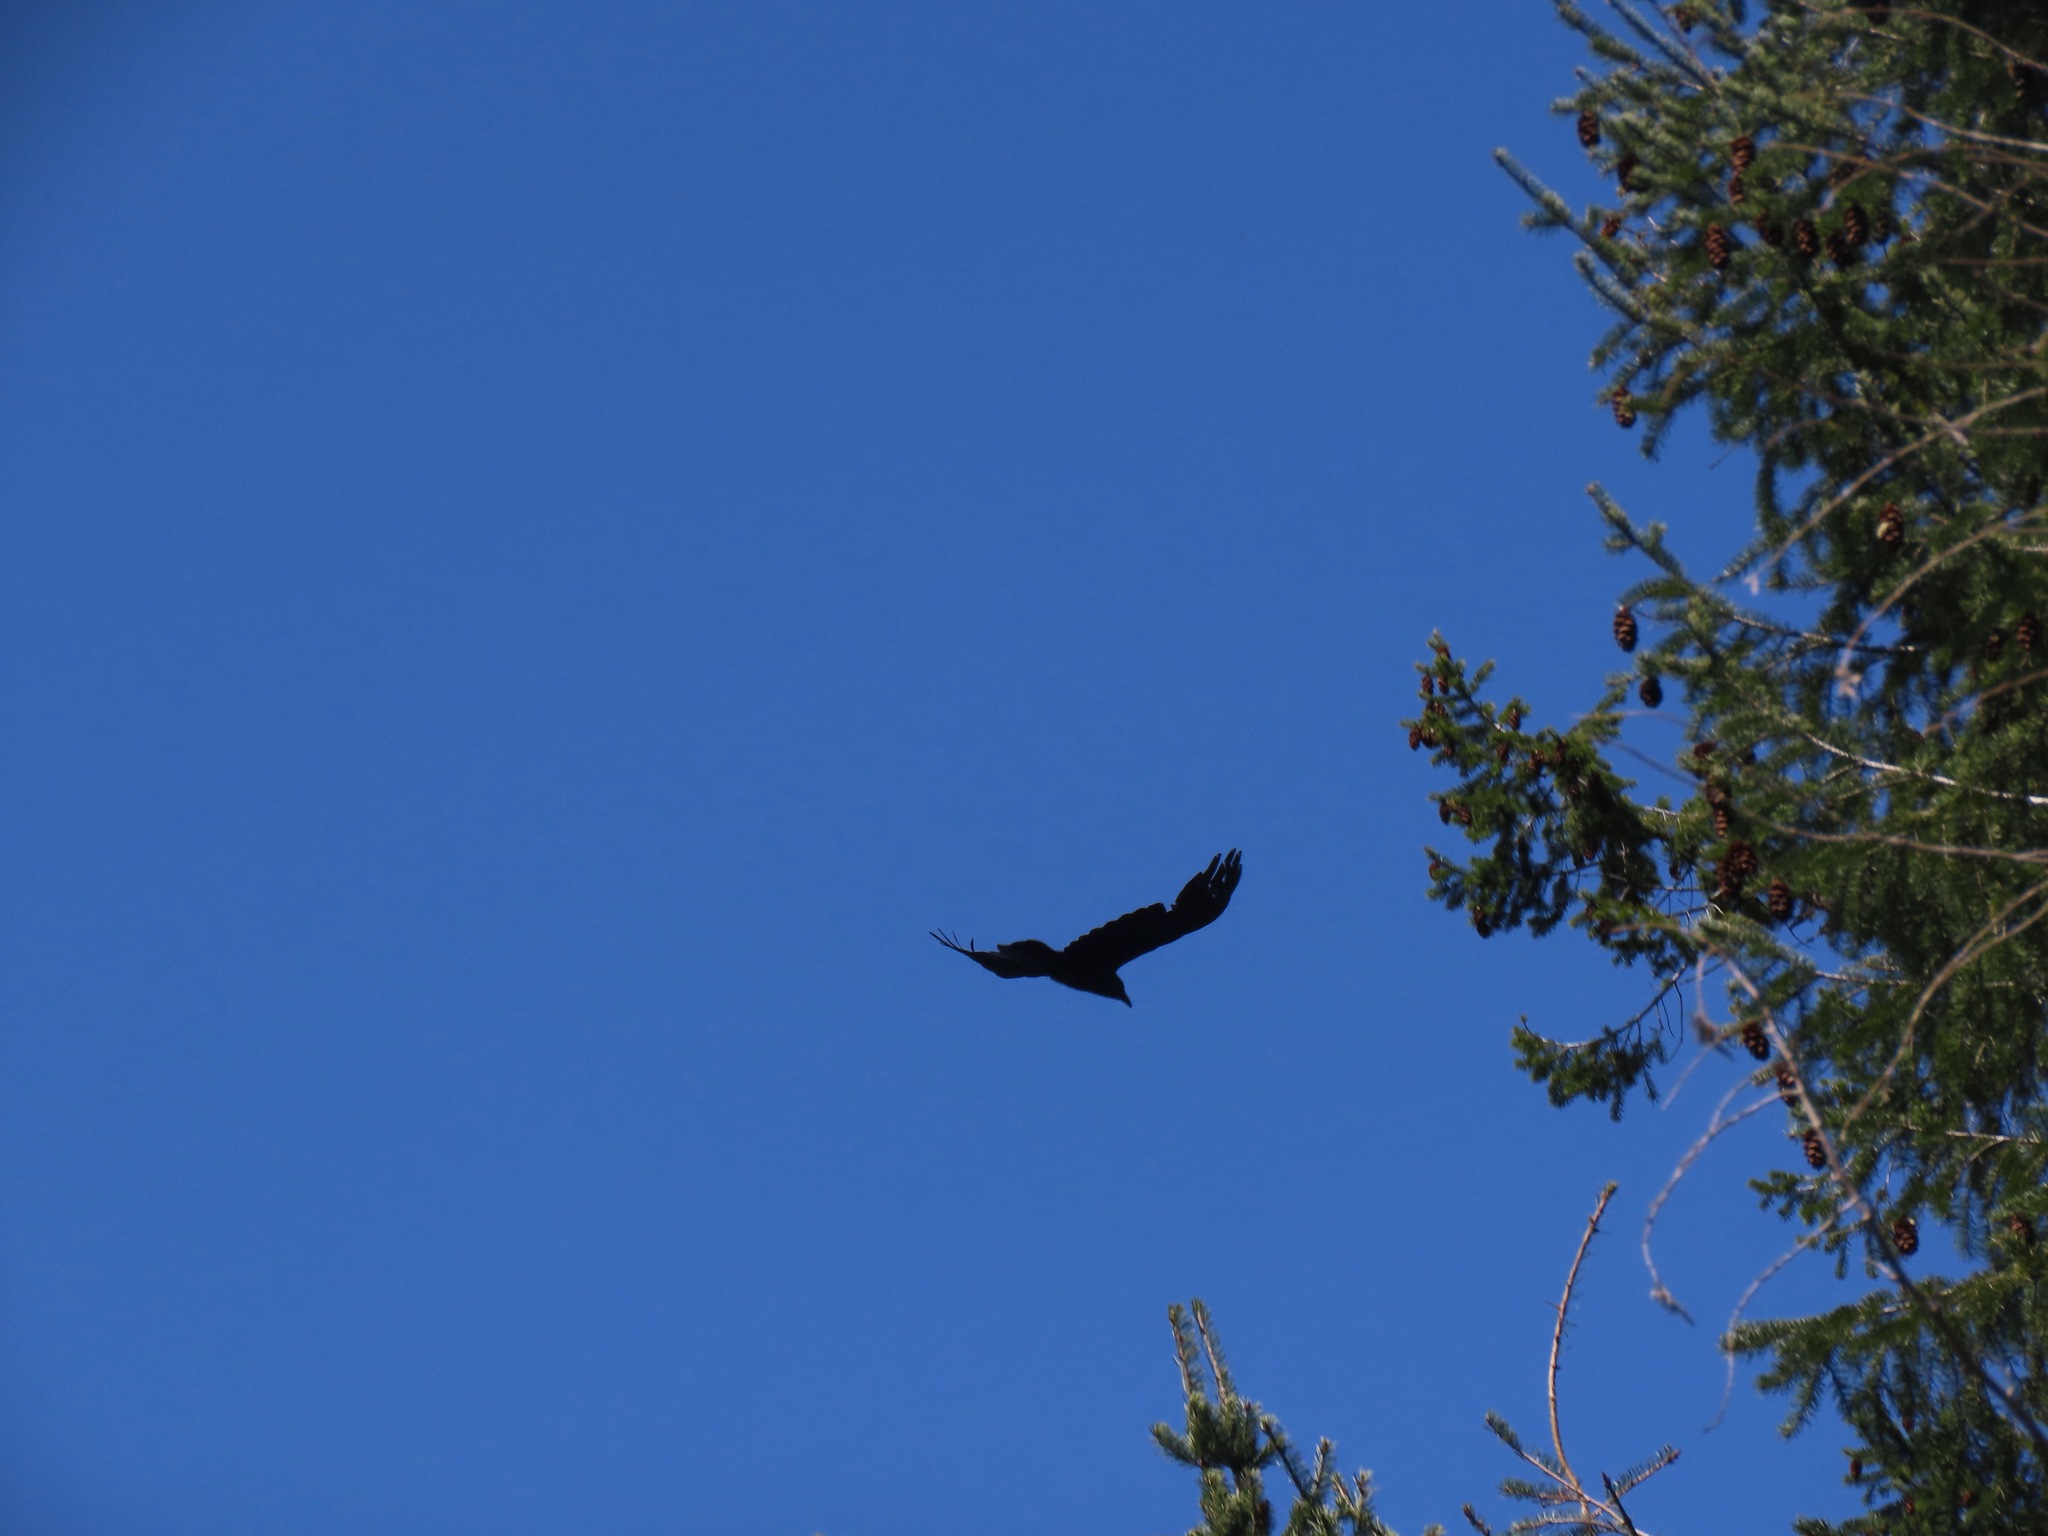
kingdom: Animalia
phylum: Chordata
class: Aves
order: Passeriformes
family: Corvidae
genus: Corvus
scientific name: Corvus corax
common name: Common raven
